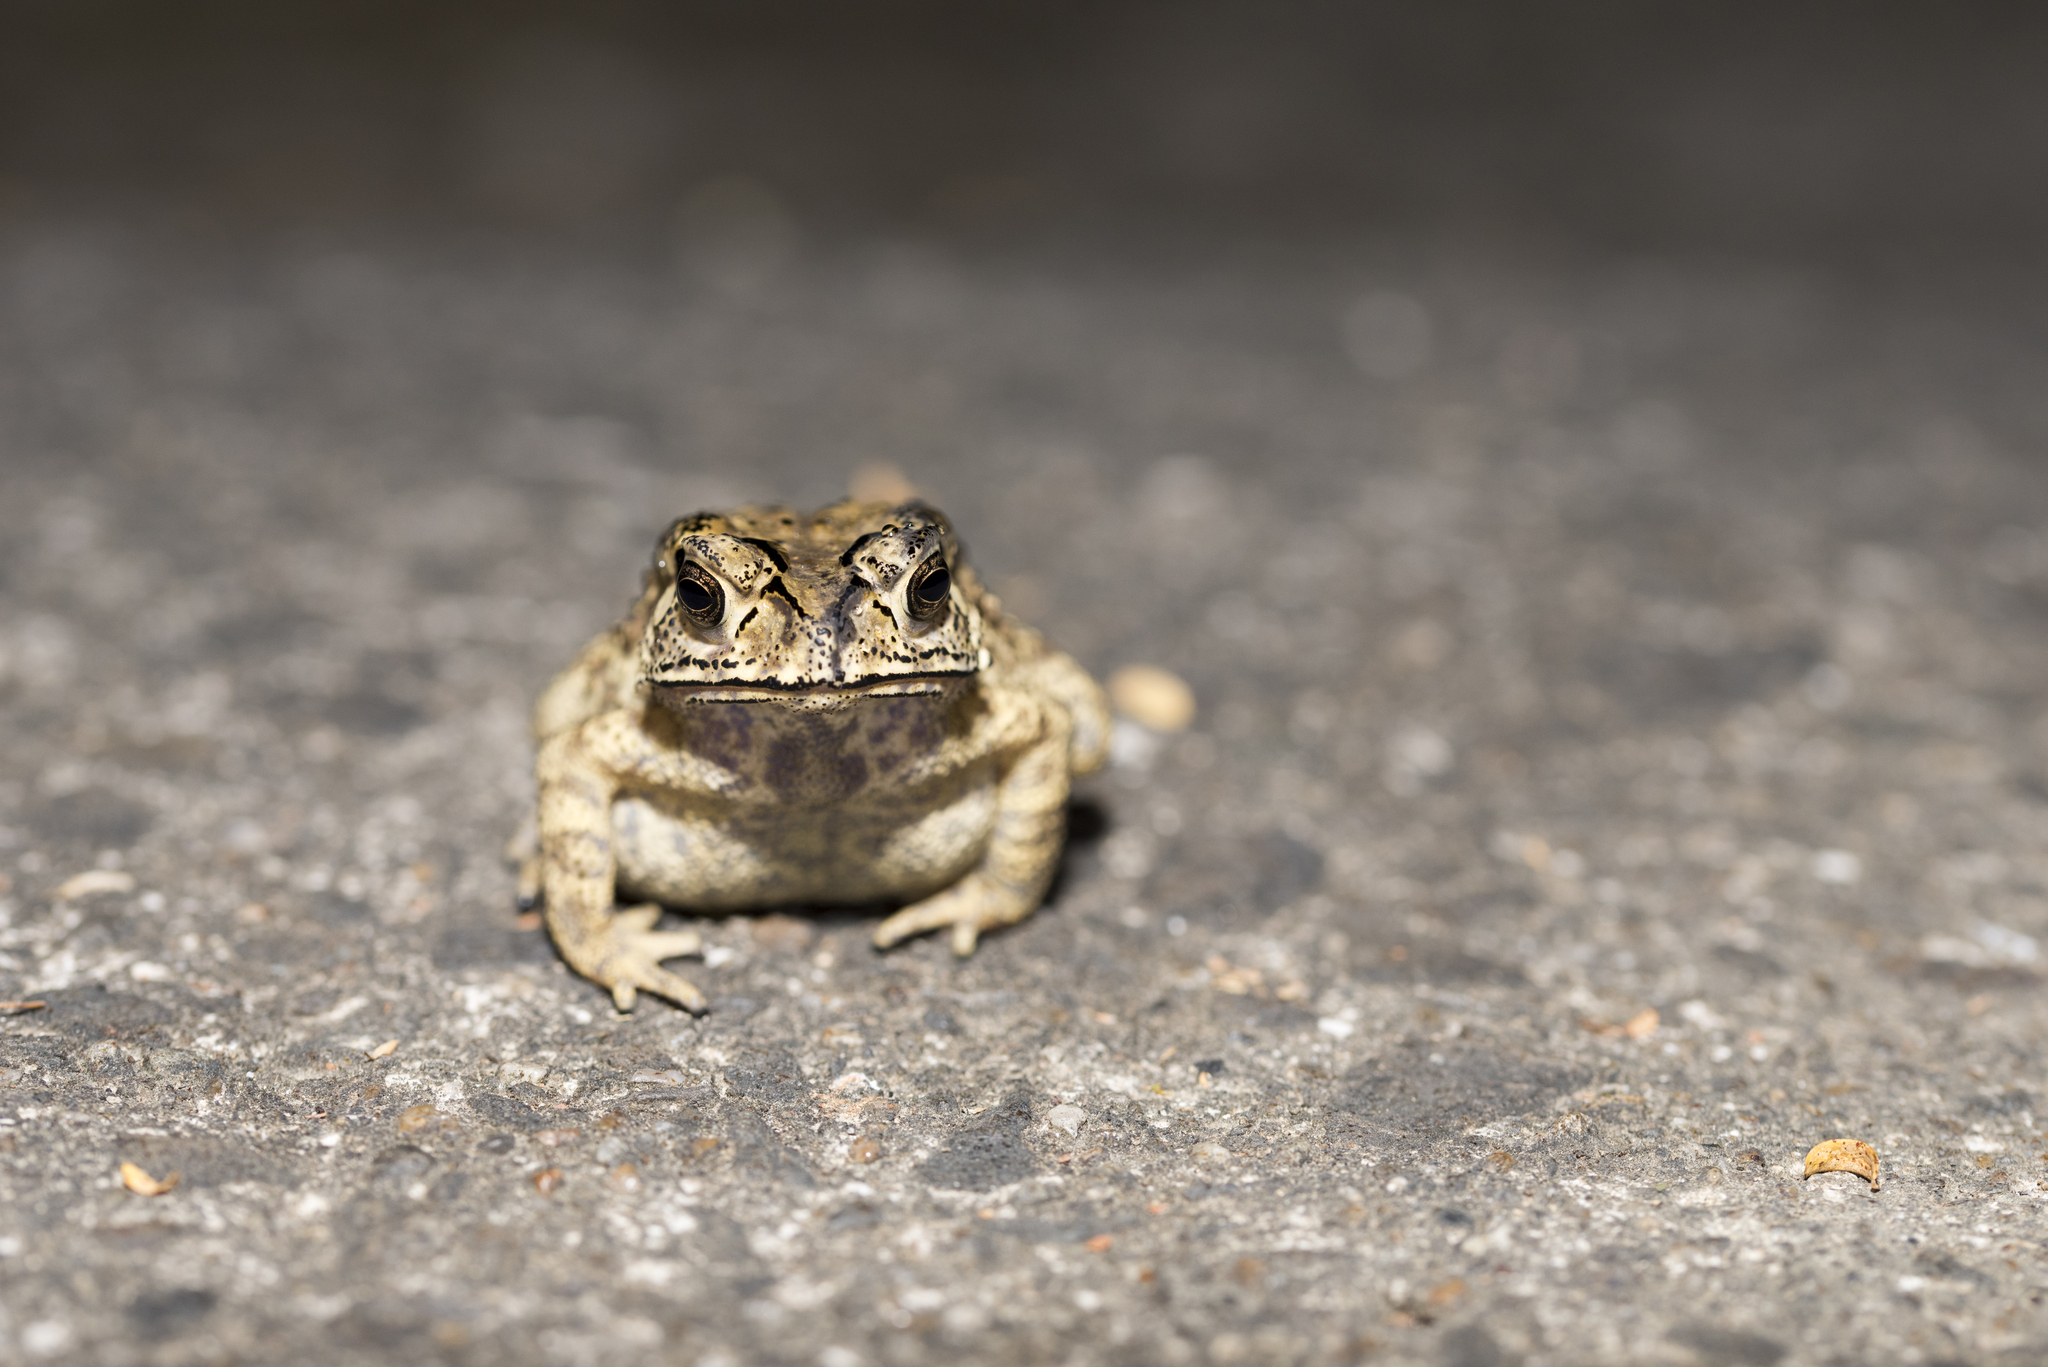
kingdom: Animalia
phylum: Chordata
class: Amphibia
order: Anura
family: Bufonidae
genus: Duttaphrynus
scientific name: Duttaphrynus melanostictus
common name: Common sunda toad
